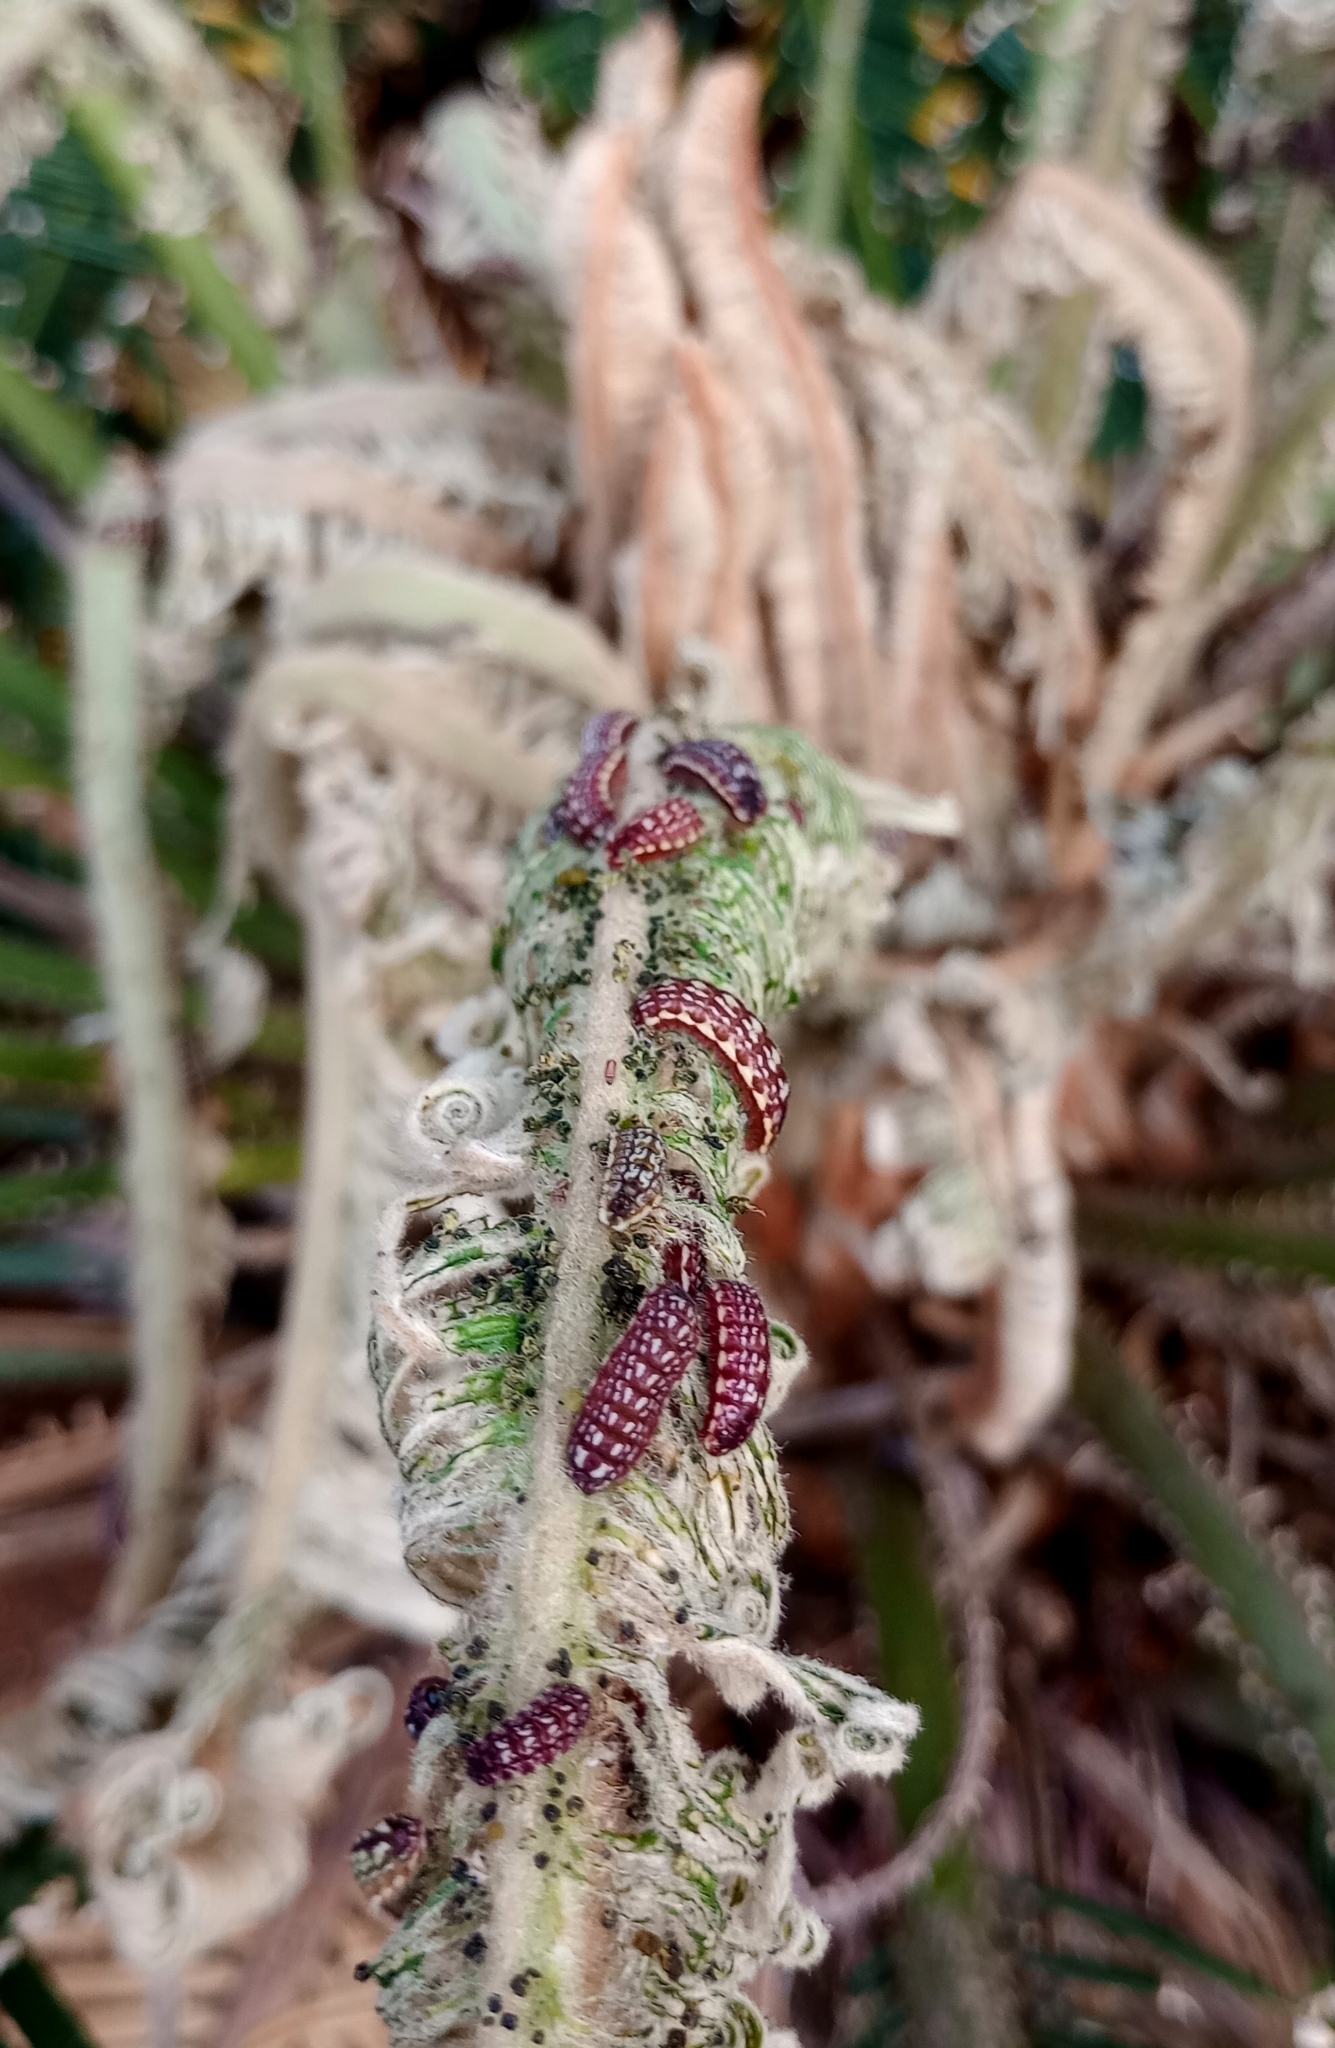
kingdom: Animalia
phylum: Arthropoda
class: Insecta
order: Lepidoptera
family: Lycaenidae
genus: Luthrodes
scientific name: Luthrodes pandava
